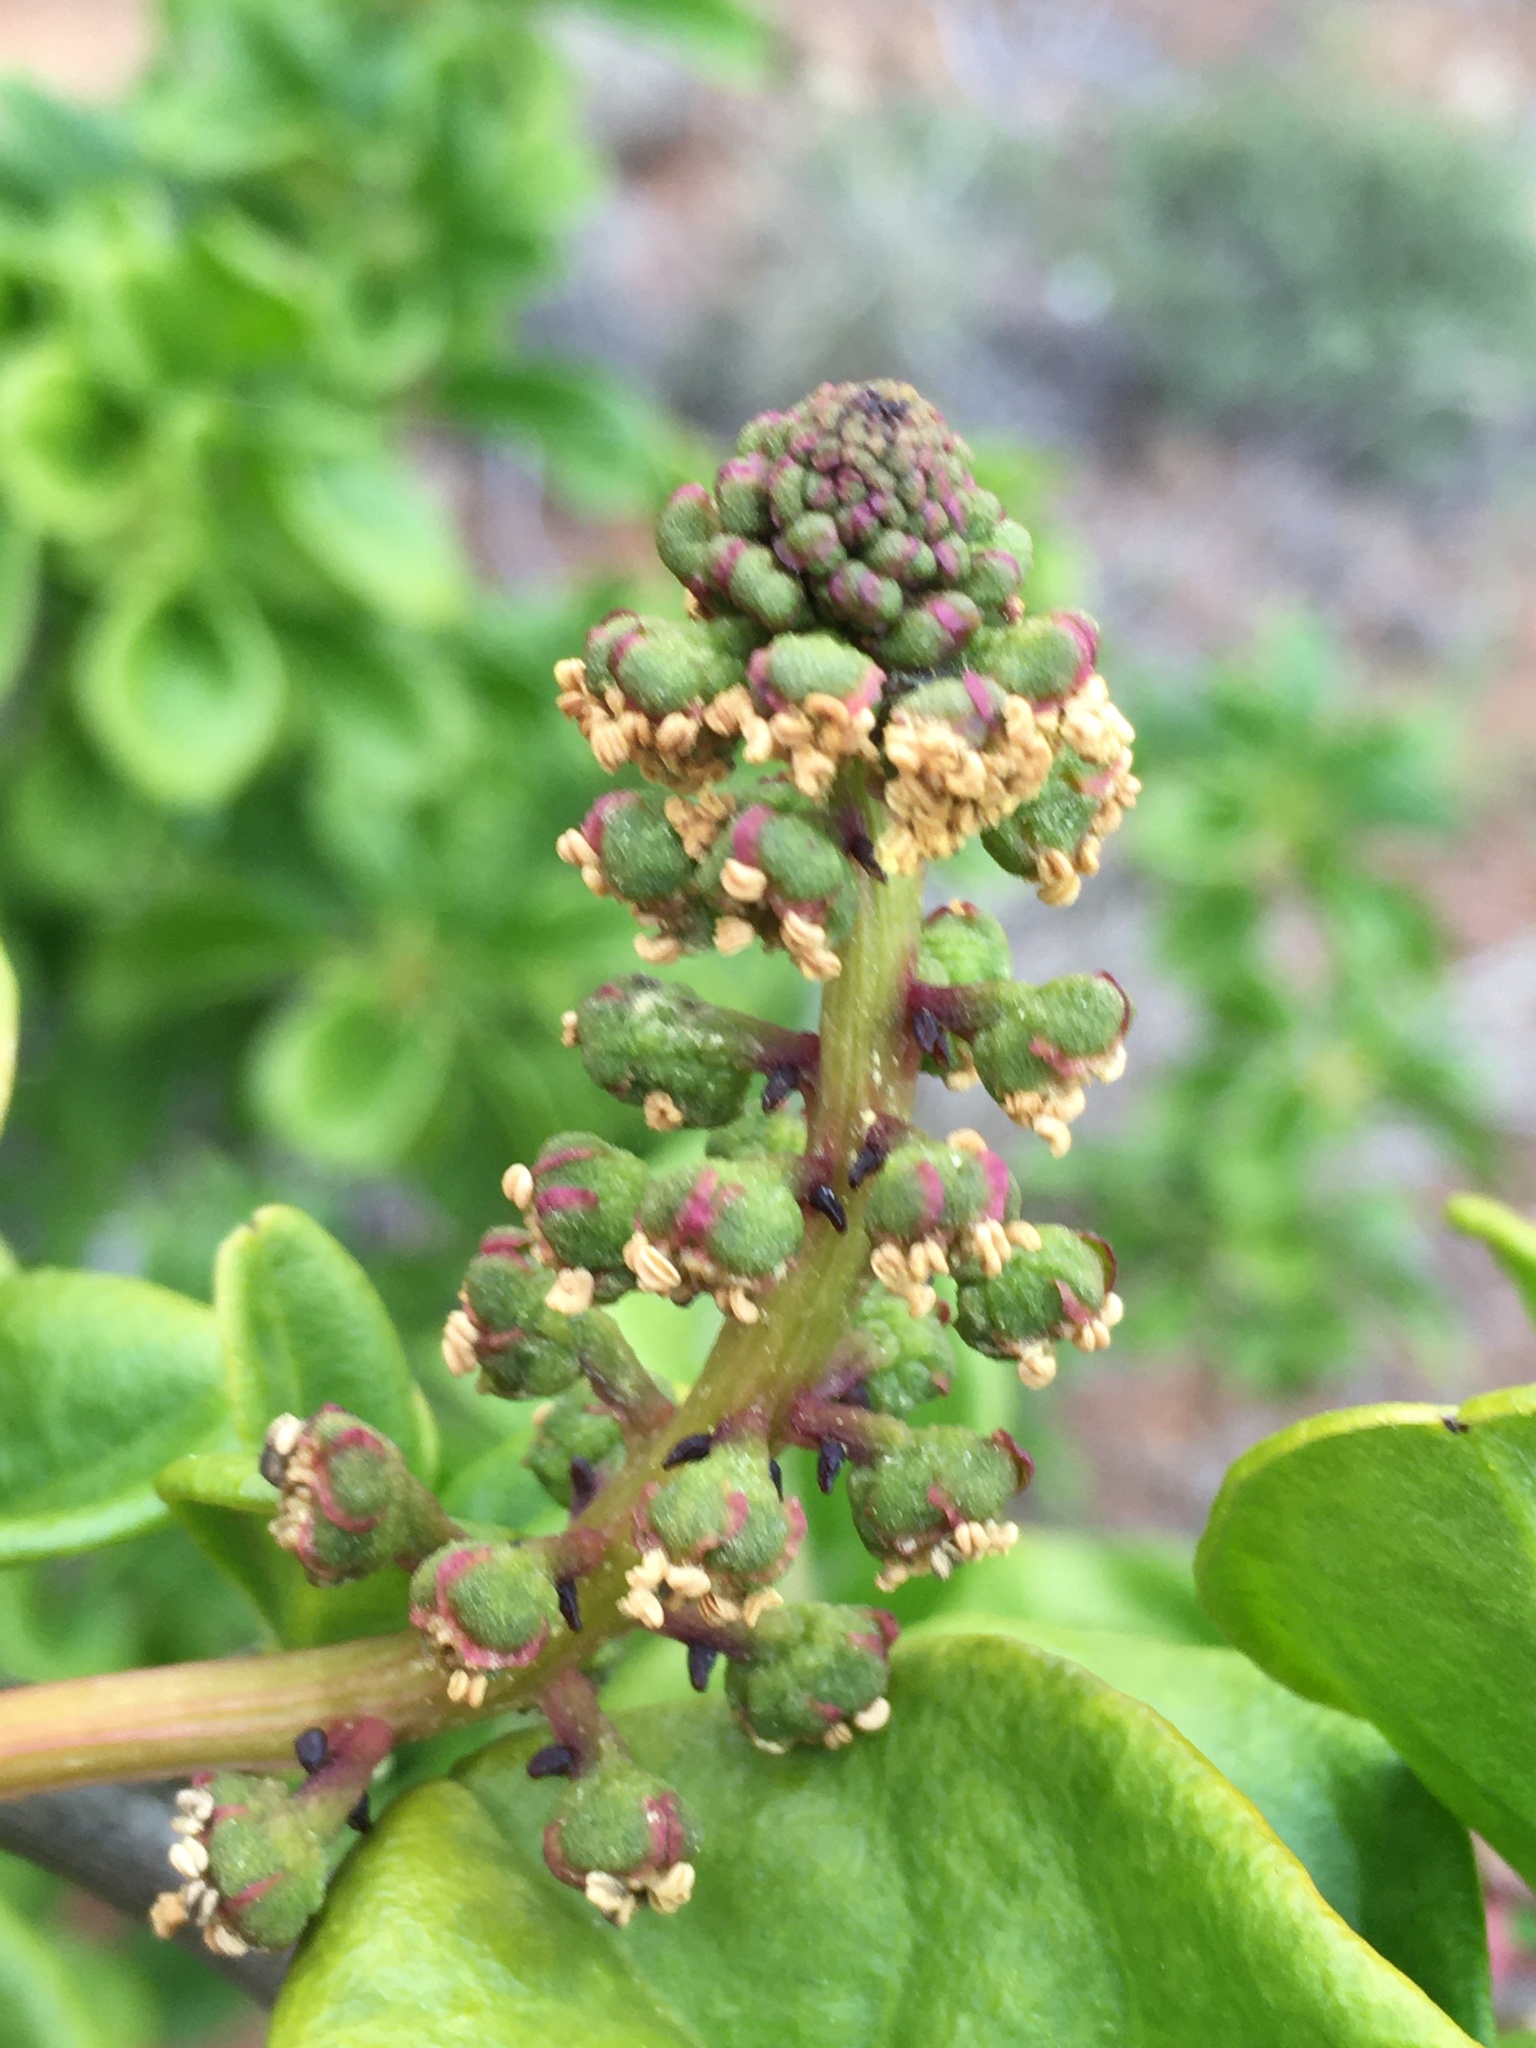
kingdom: Plantae
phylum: Tracheophyta
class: Magnoliopsida
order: Caryophyllales
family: Phytolaccaceae
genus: Anisomeria
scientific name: Anisomeria littoralis
